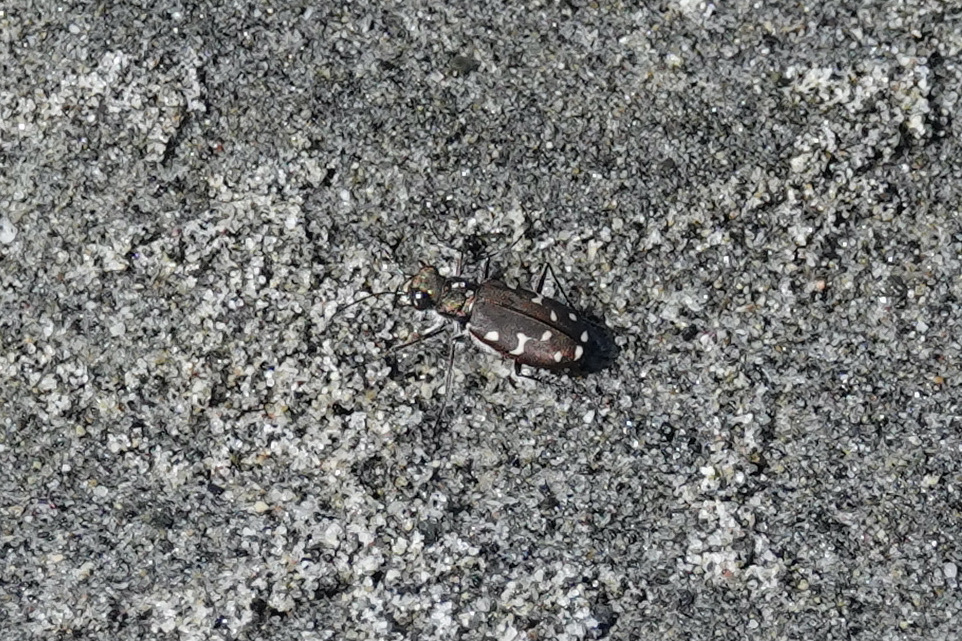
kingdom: Animalia
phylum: Arthropoda
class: Insecta
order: Coleoptera
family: Carabidae
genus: Cicindela
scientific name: Cicindela oregona
